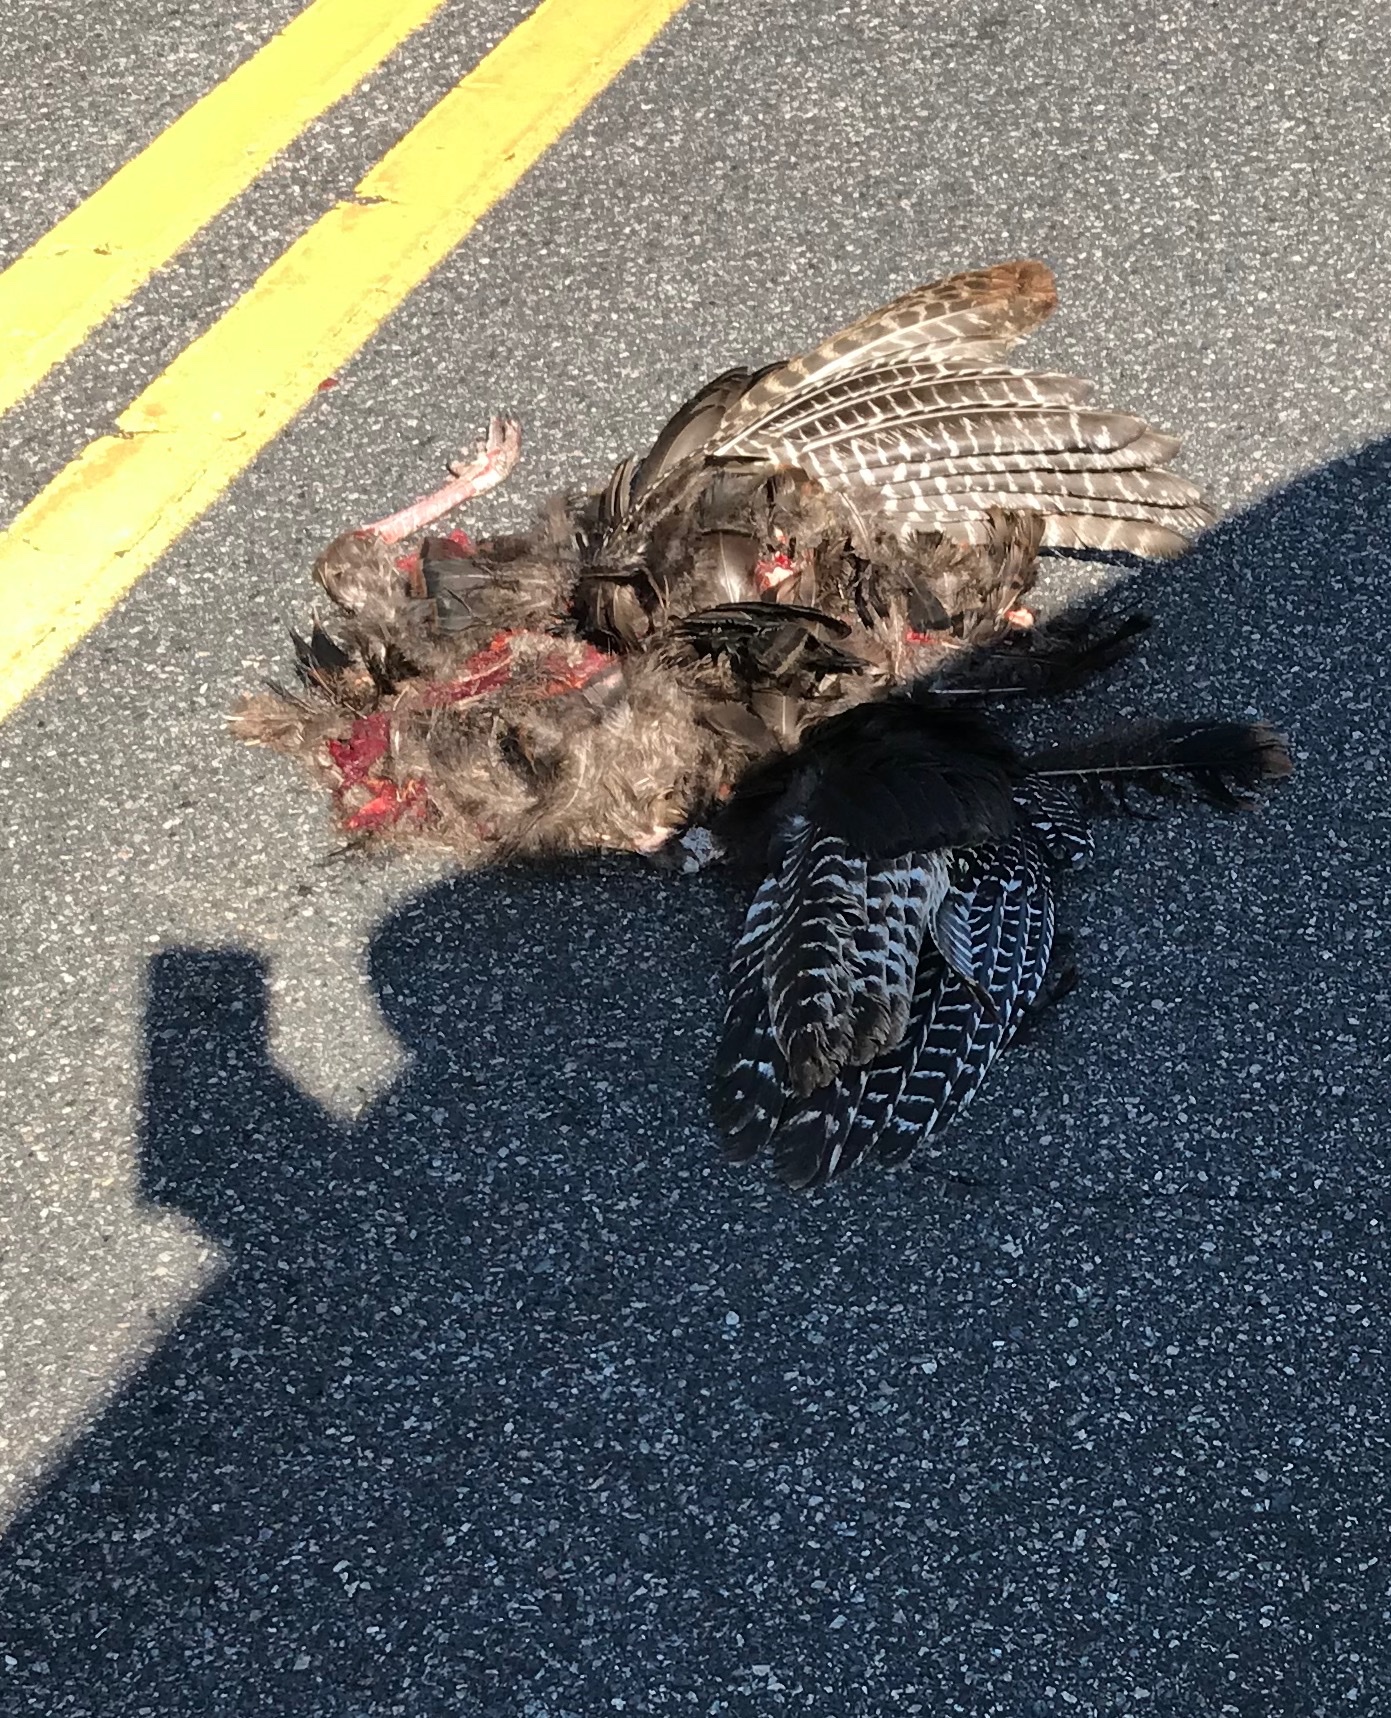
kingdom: Animalia
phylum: Chordata
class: Aves
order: Galliformes
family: Phasianidae
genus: Meleagris
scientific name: Meleagris gallopavo
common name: Wild turkey
